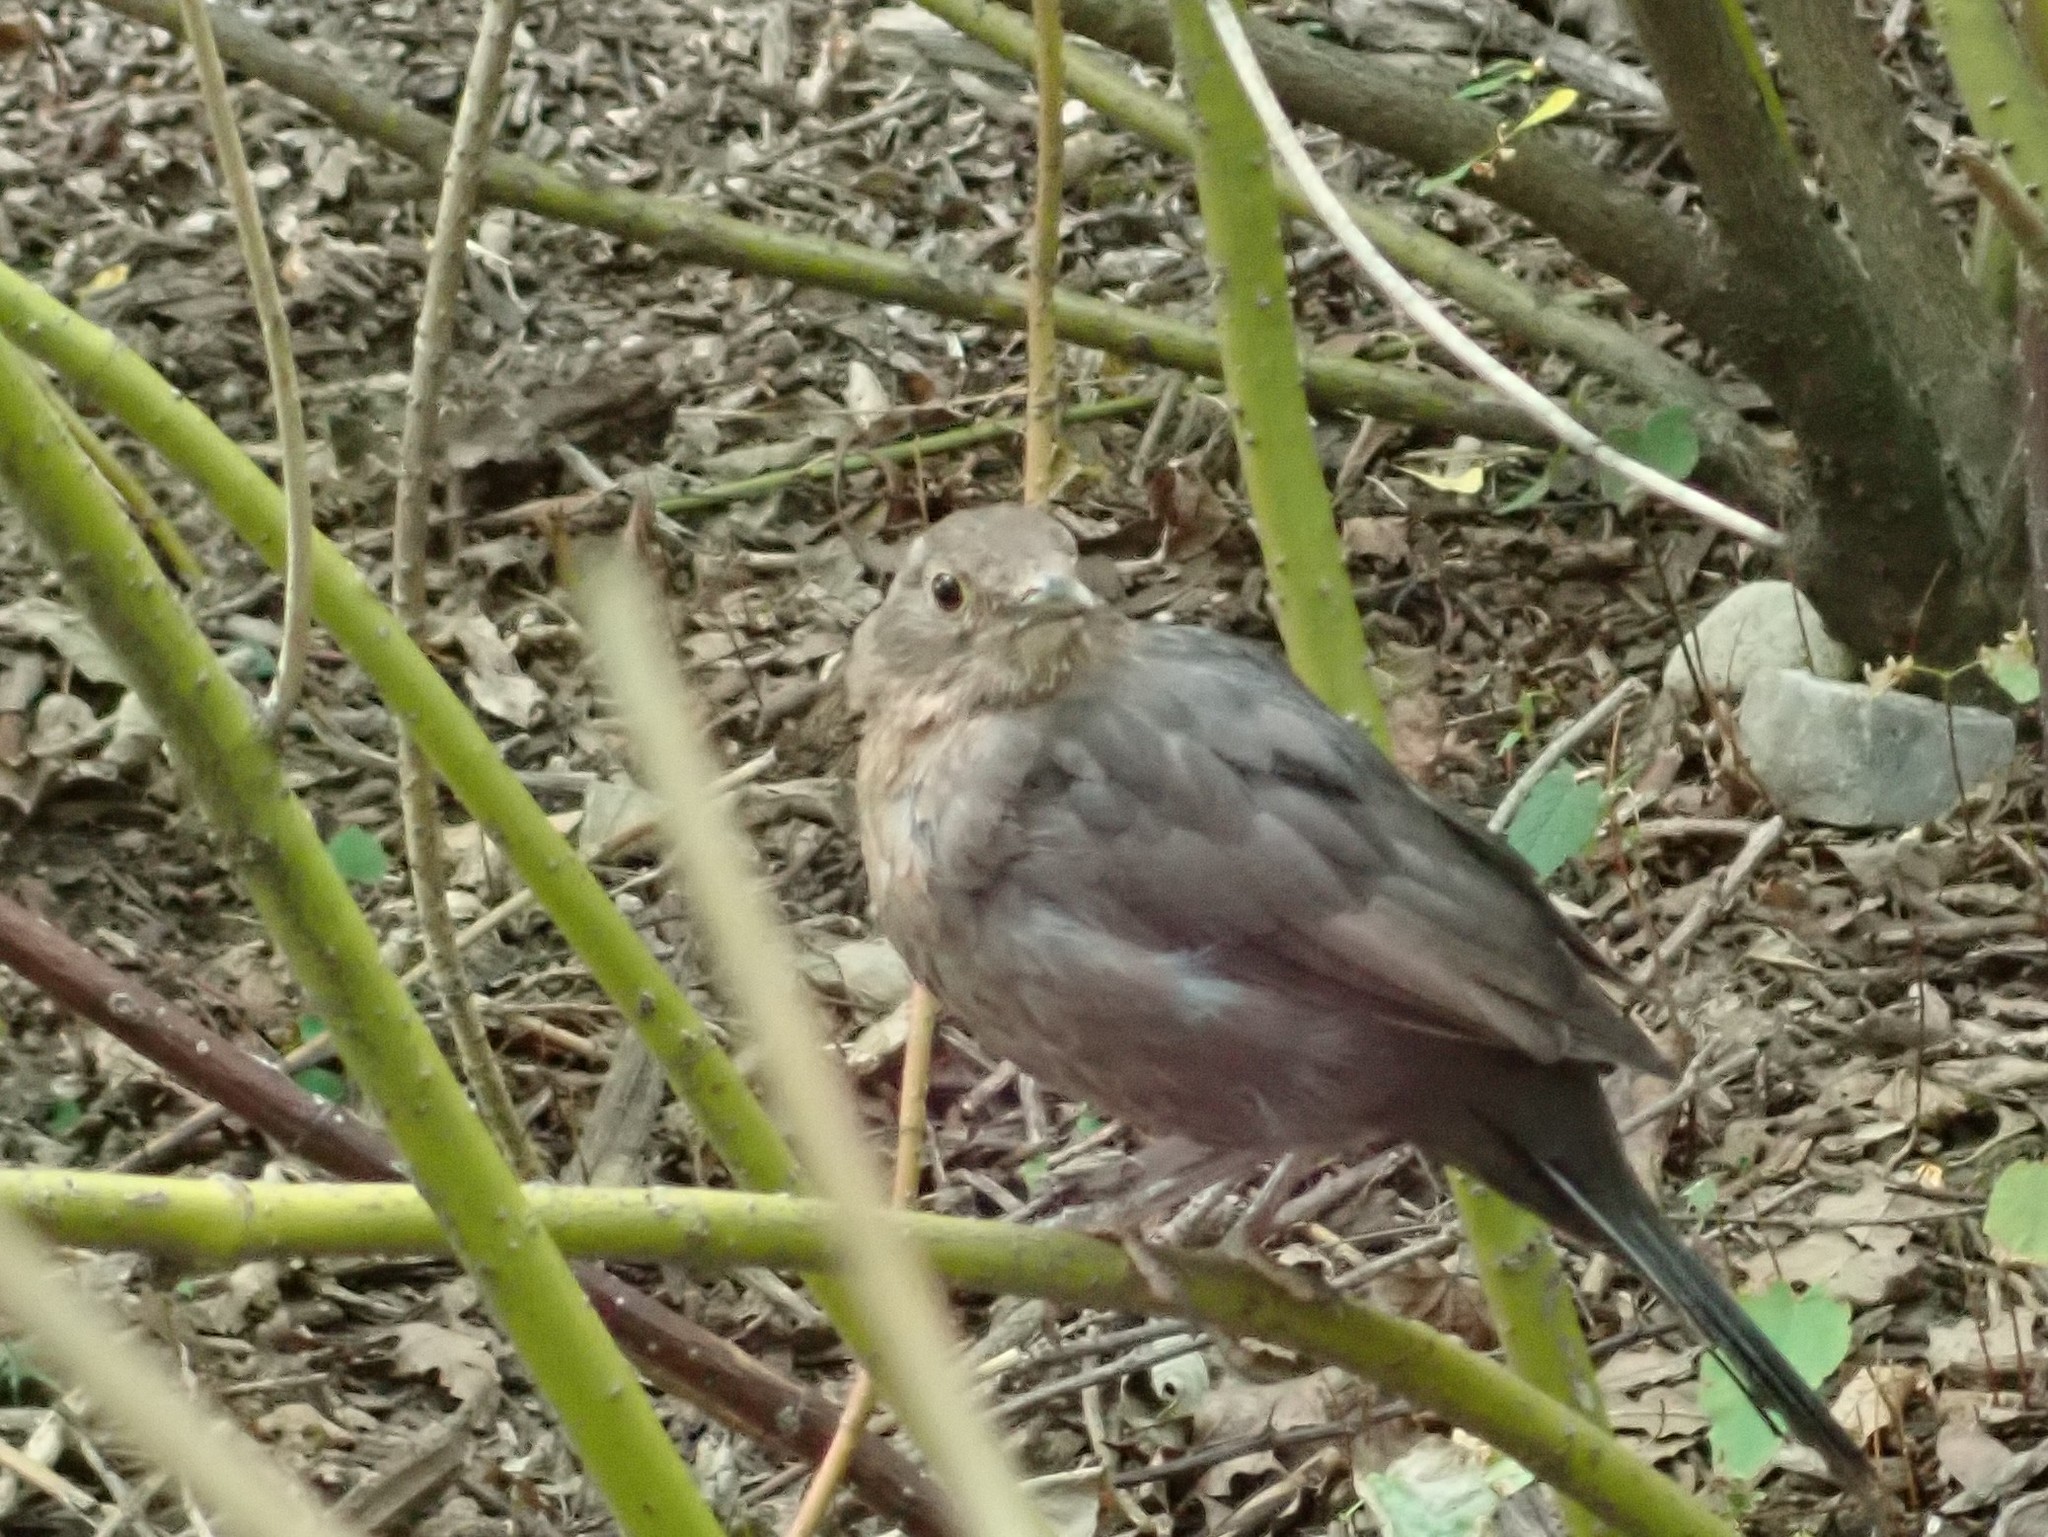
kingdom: Animalia
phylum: Chordata
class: Aves
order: Passeriformes
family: Turdidae
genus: Turdus
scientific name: Turdus merula
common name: Common blackbird
